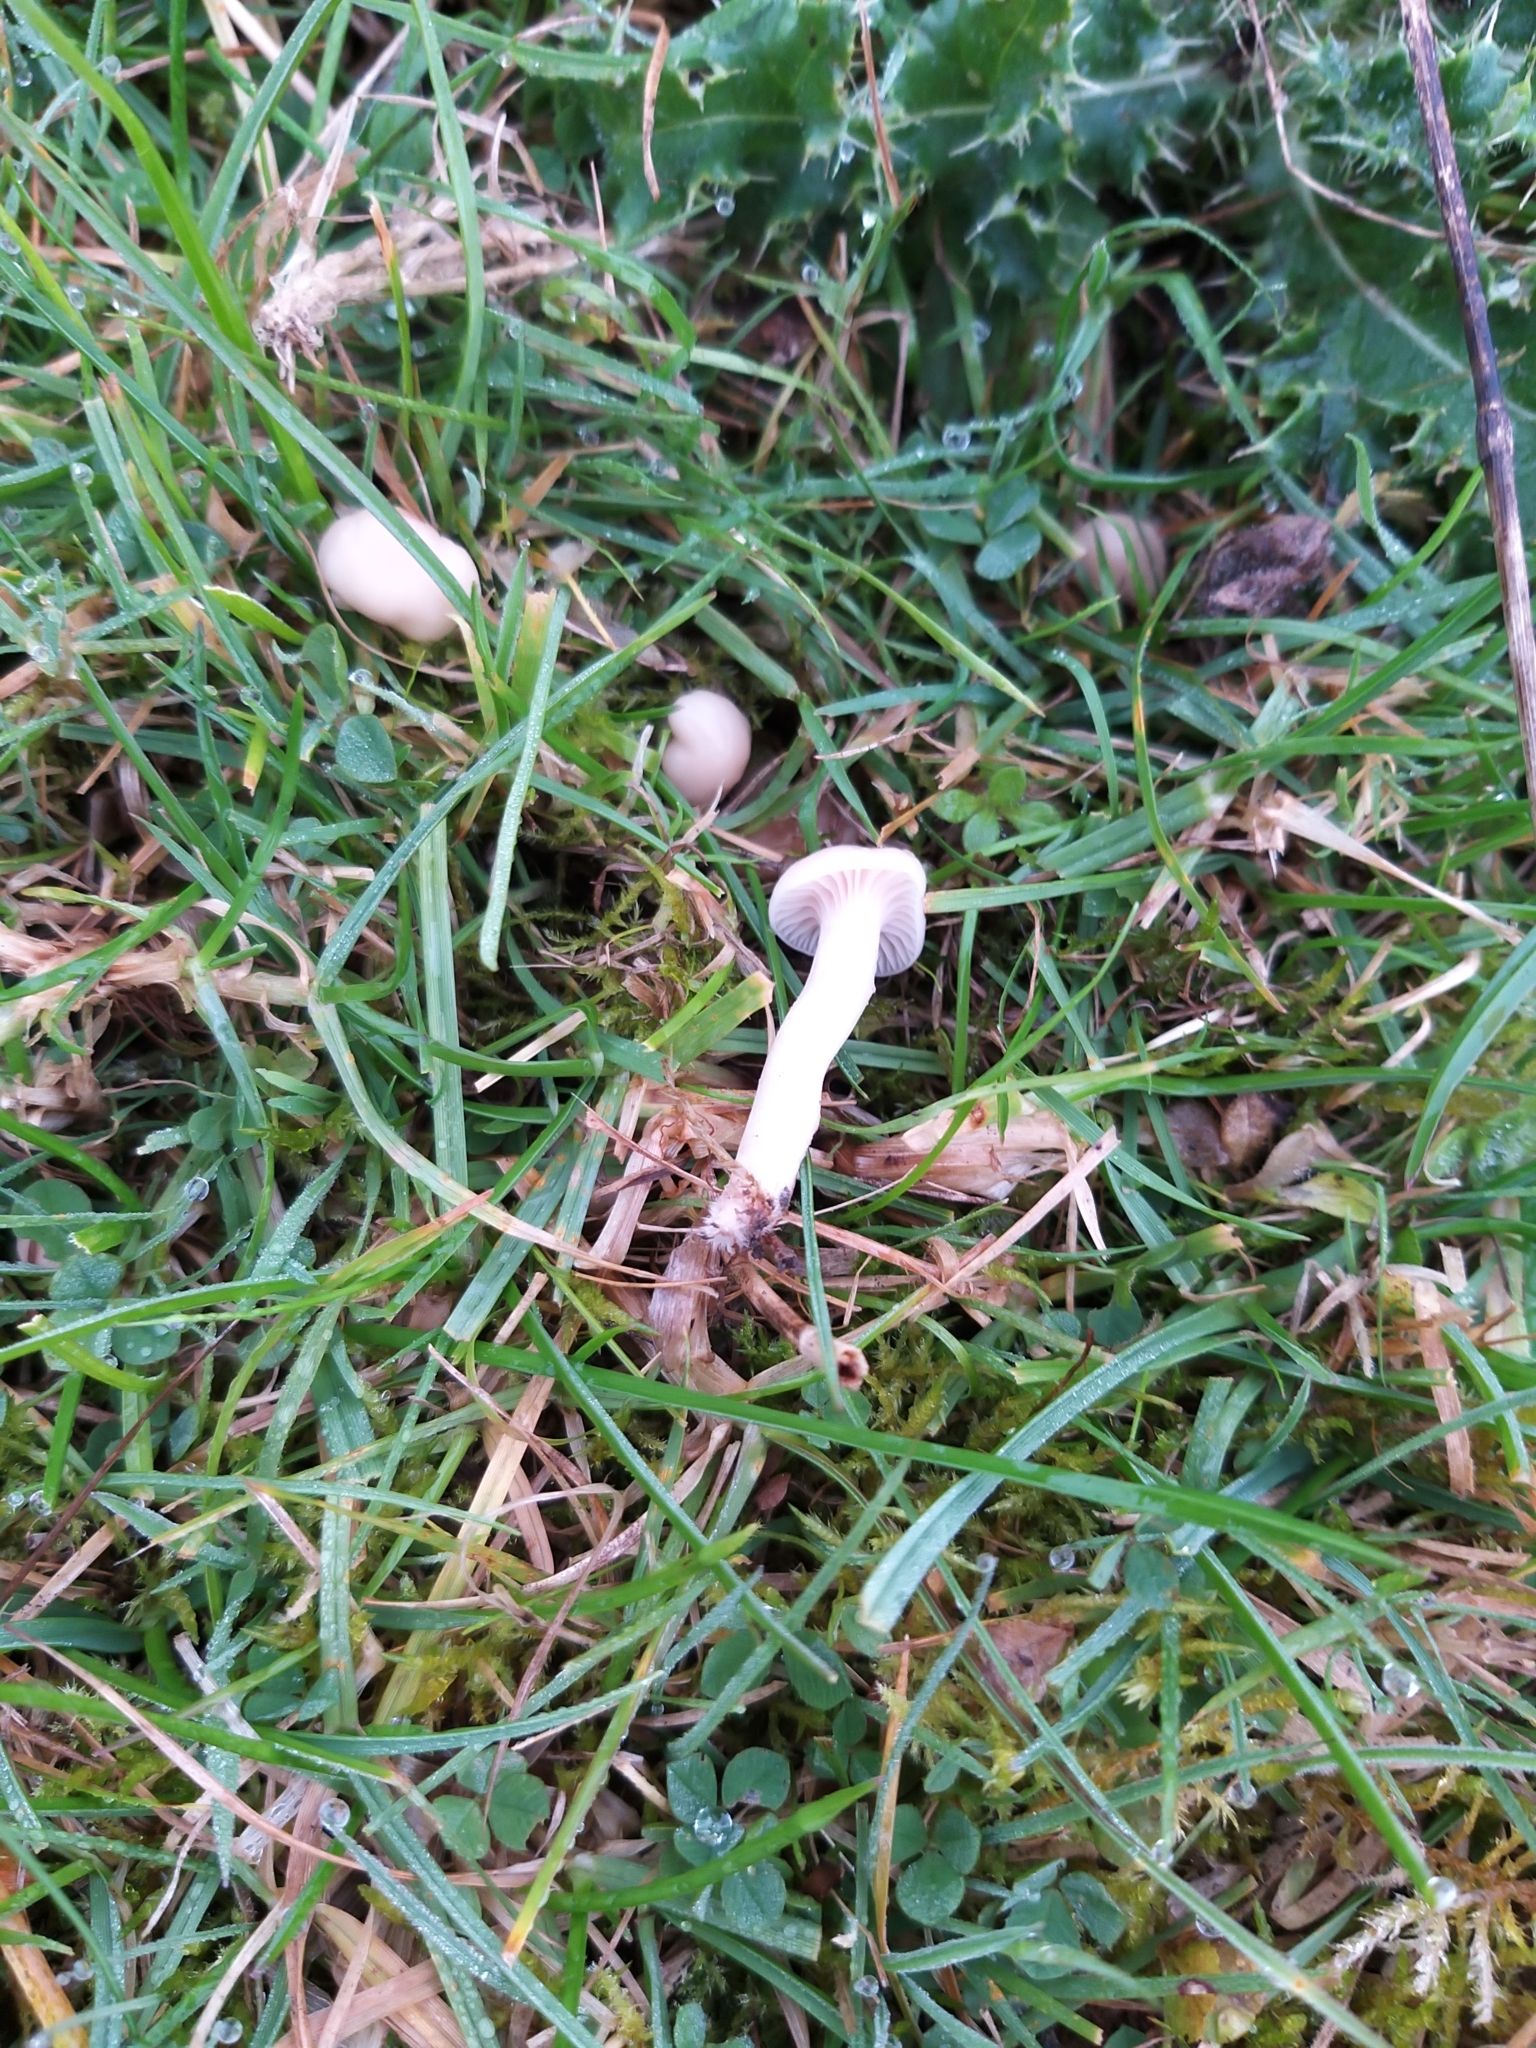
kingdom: Fungi
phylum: Basidiomycota
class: Agaricomycetes
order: Agaricales
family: Hygrophoraceae
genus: Cuphophyllus
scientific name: Cuphophyllus virgineus
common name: Snowy waxcap
